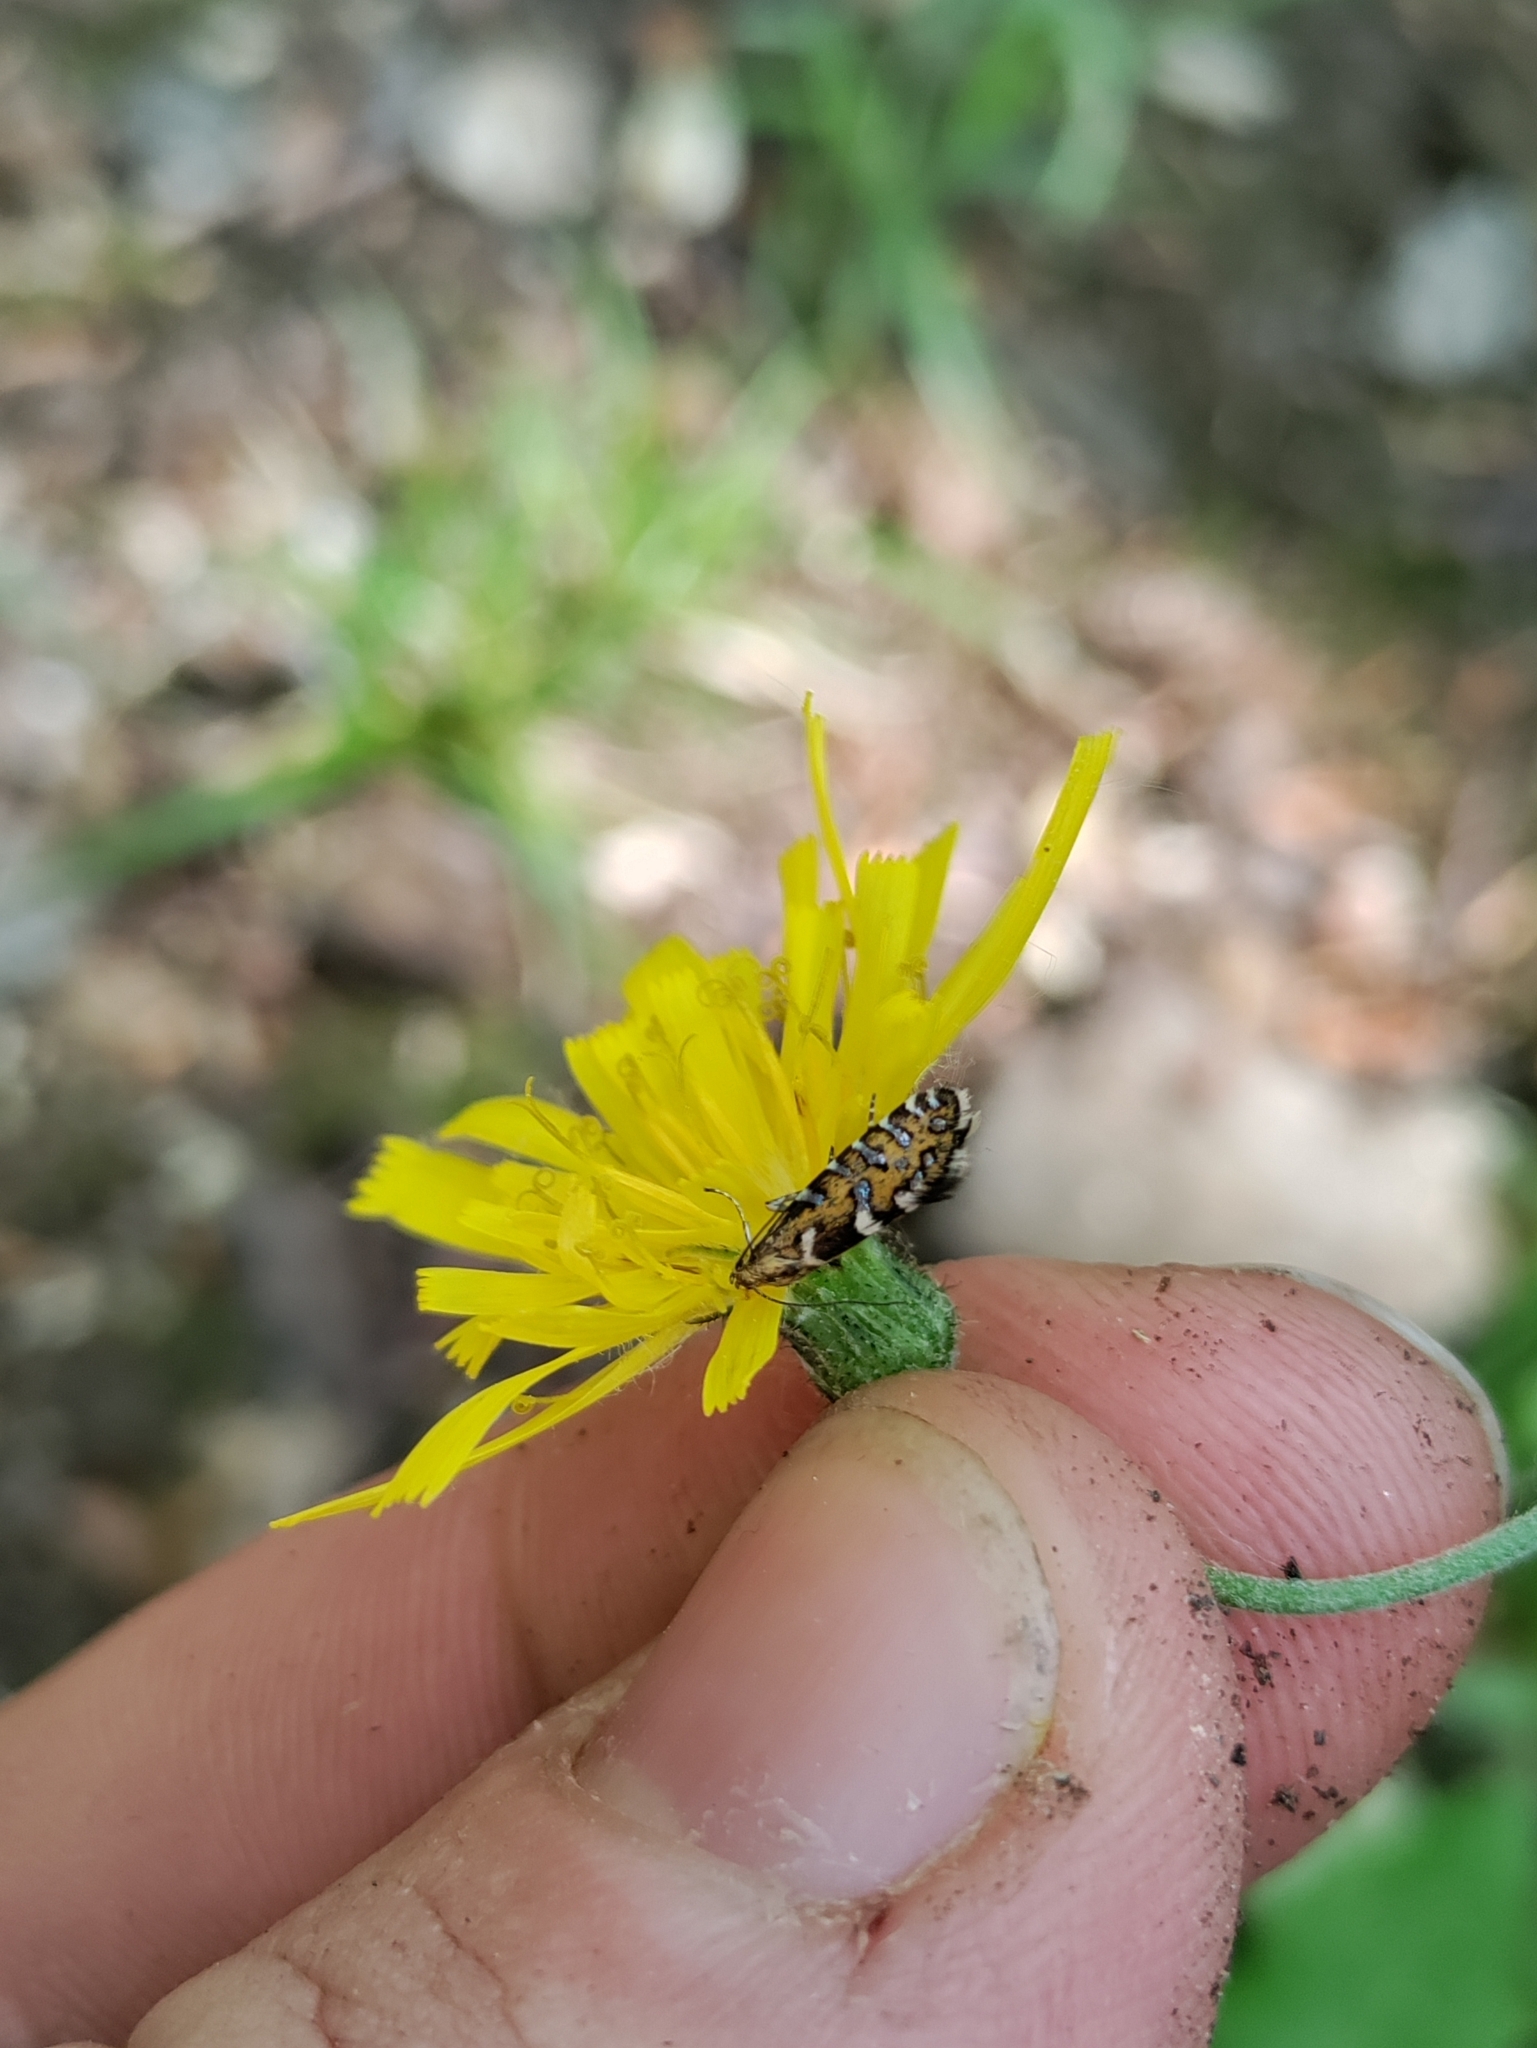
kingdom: Animalia
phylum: Arthropoda
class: Insecta
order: Lepidoptera
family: Glyphipterigidae
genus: Glyphipterix
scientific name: Glyphipterix bergstraesserella
